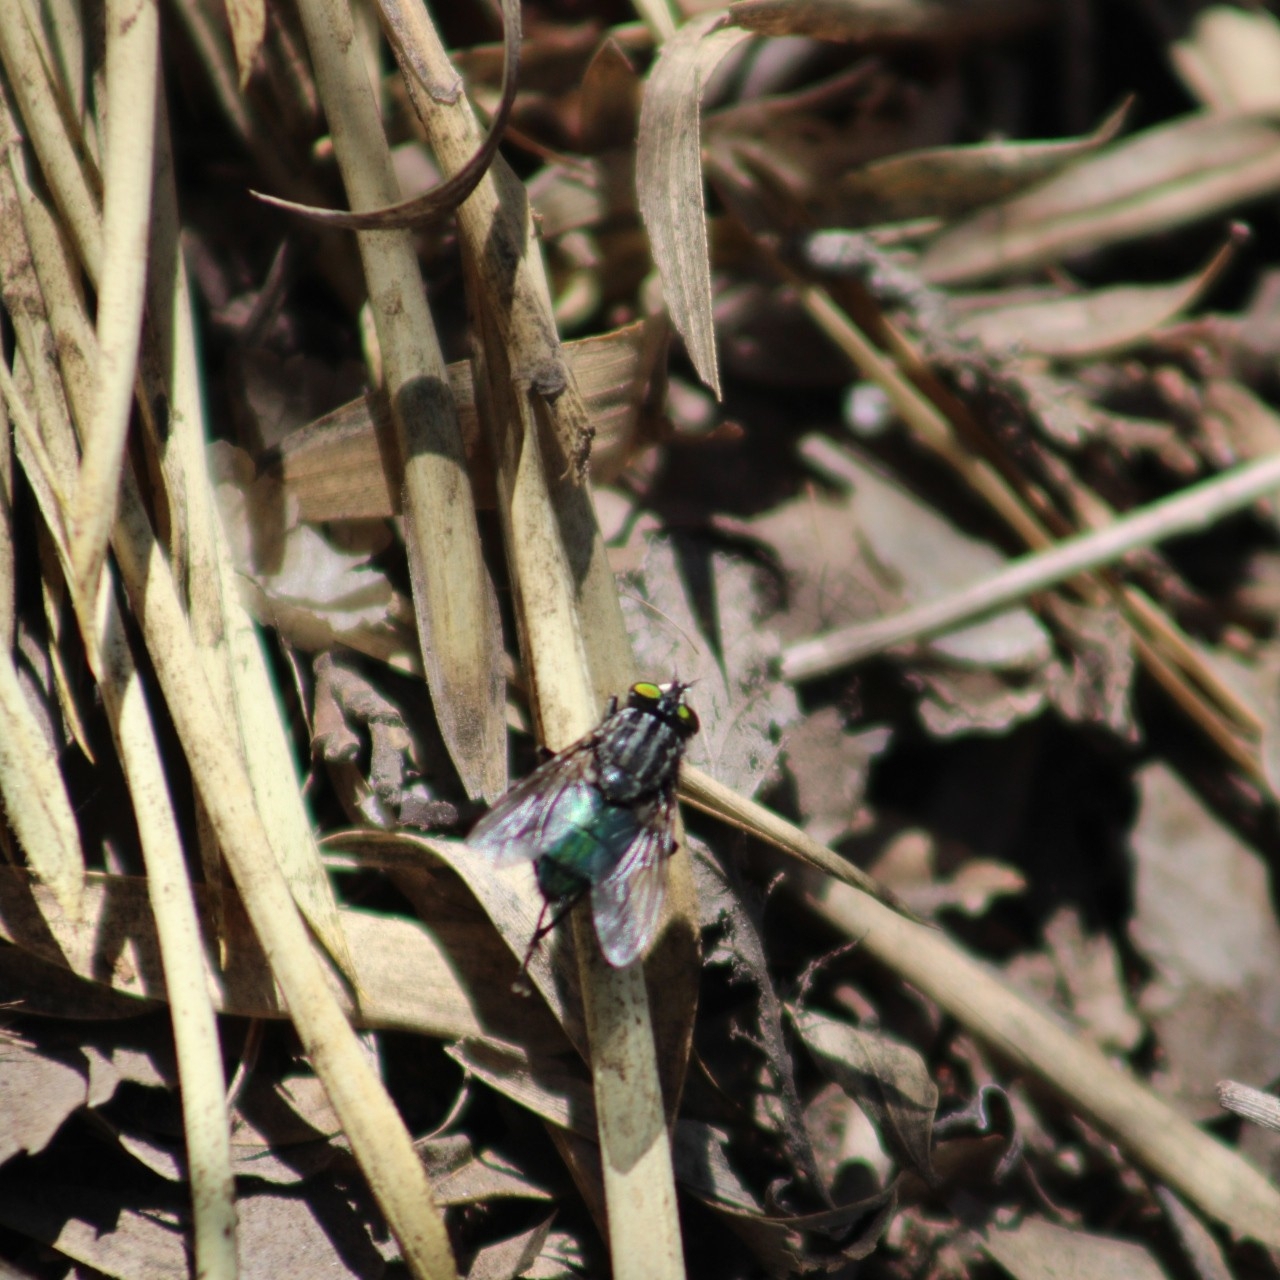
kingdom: Animalia
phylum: Arthropoda
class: Insecta
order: Diptera
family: Calliphoridae
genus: Sarconesia
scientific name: Sarconesia chlorogaster
